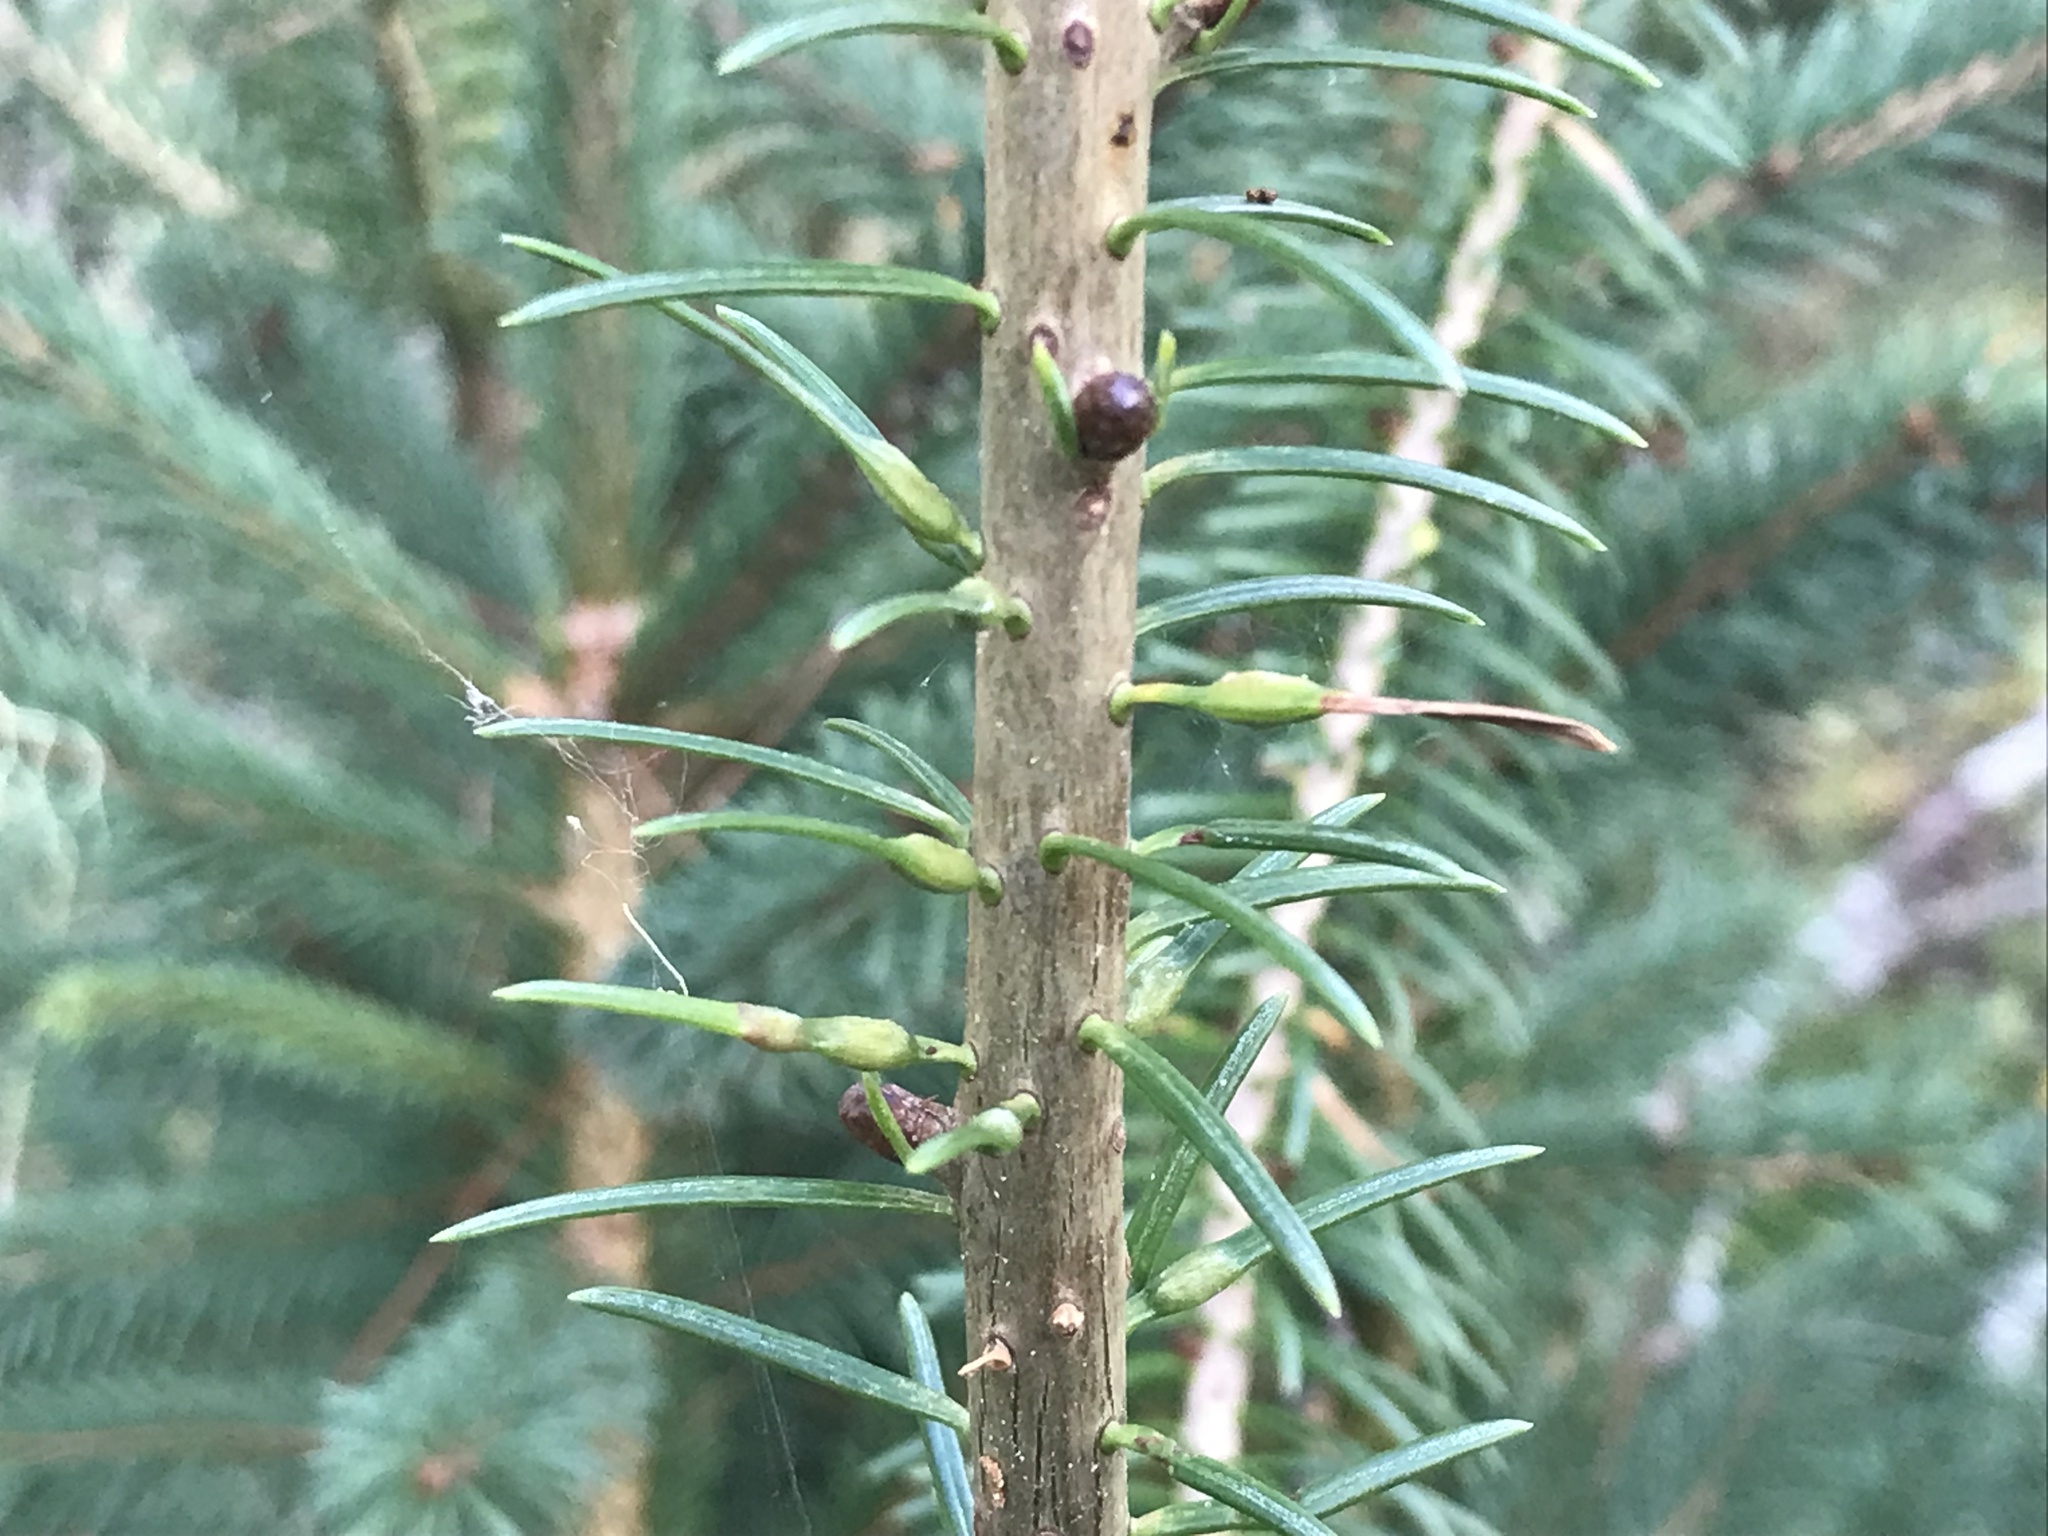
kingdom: Animalia
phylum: Arthropoda
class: Insecta
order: Diptera
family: Cecidomyiidae
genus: Paradiplosis
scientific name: Paradiplosis tumifex
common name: Gall midge
